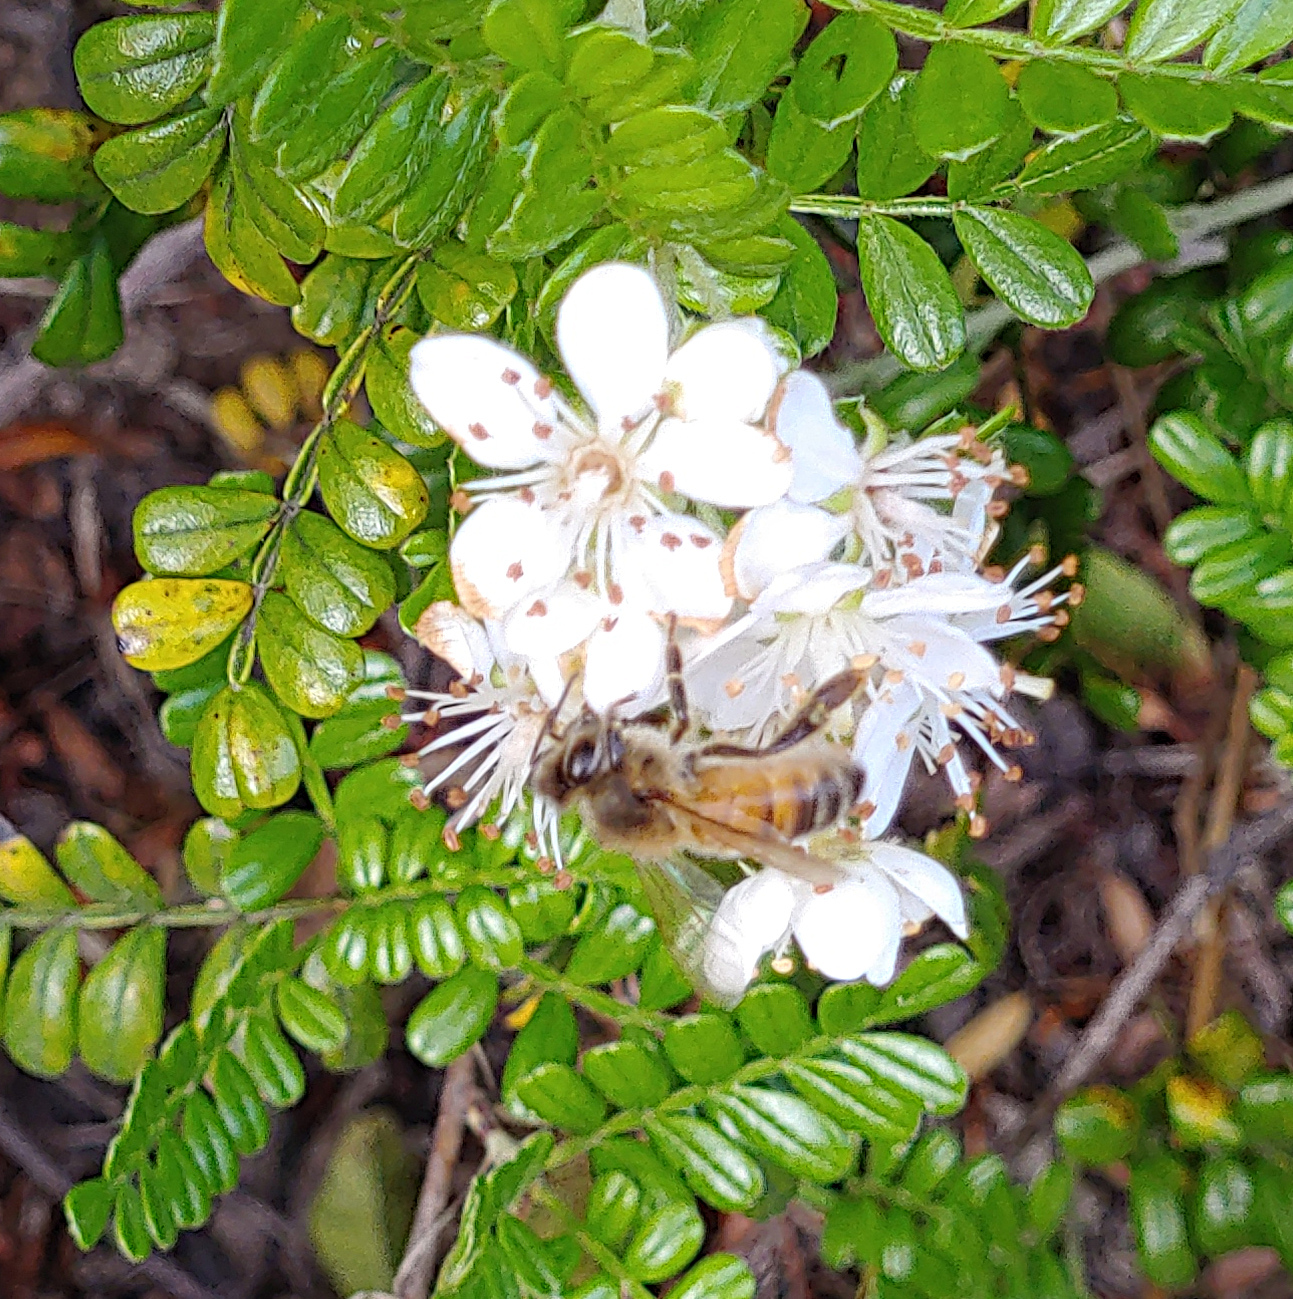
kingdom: Animalia
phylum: Arthropoda
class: Insecta
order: Hymenoptera
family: Apidae
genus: Apis
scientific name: Apis mellifera
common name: Honey bee
